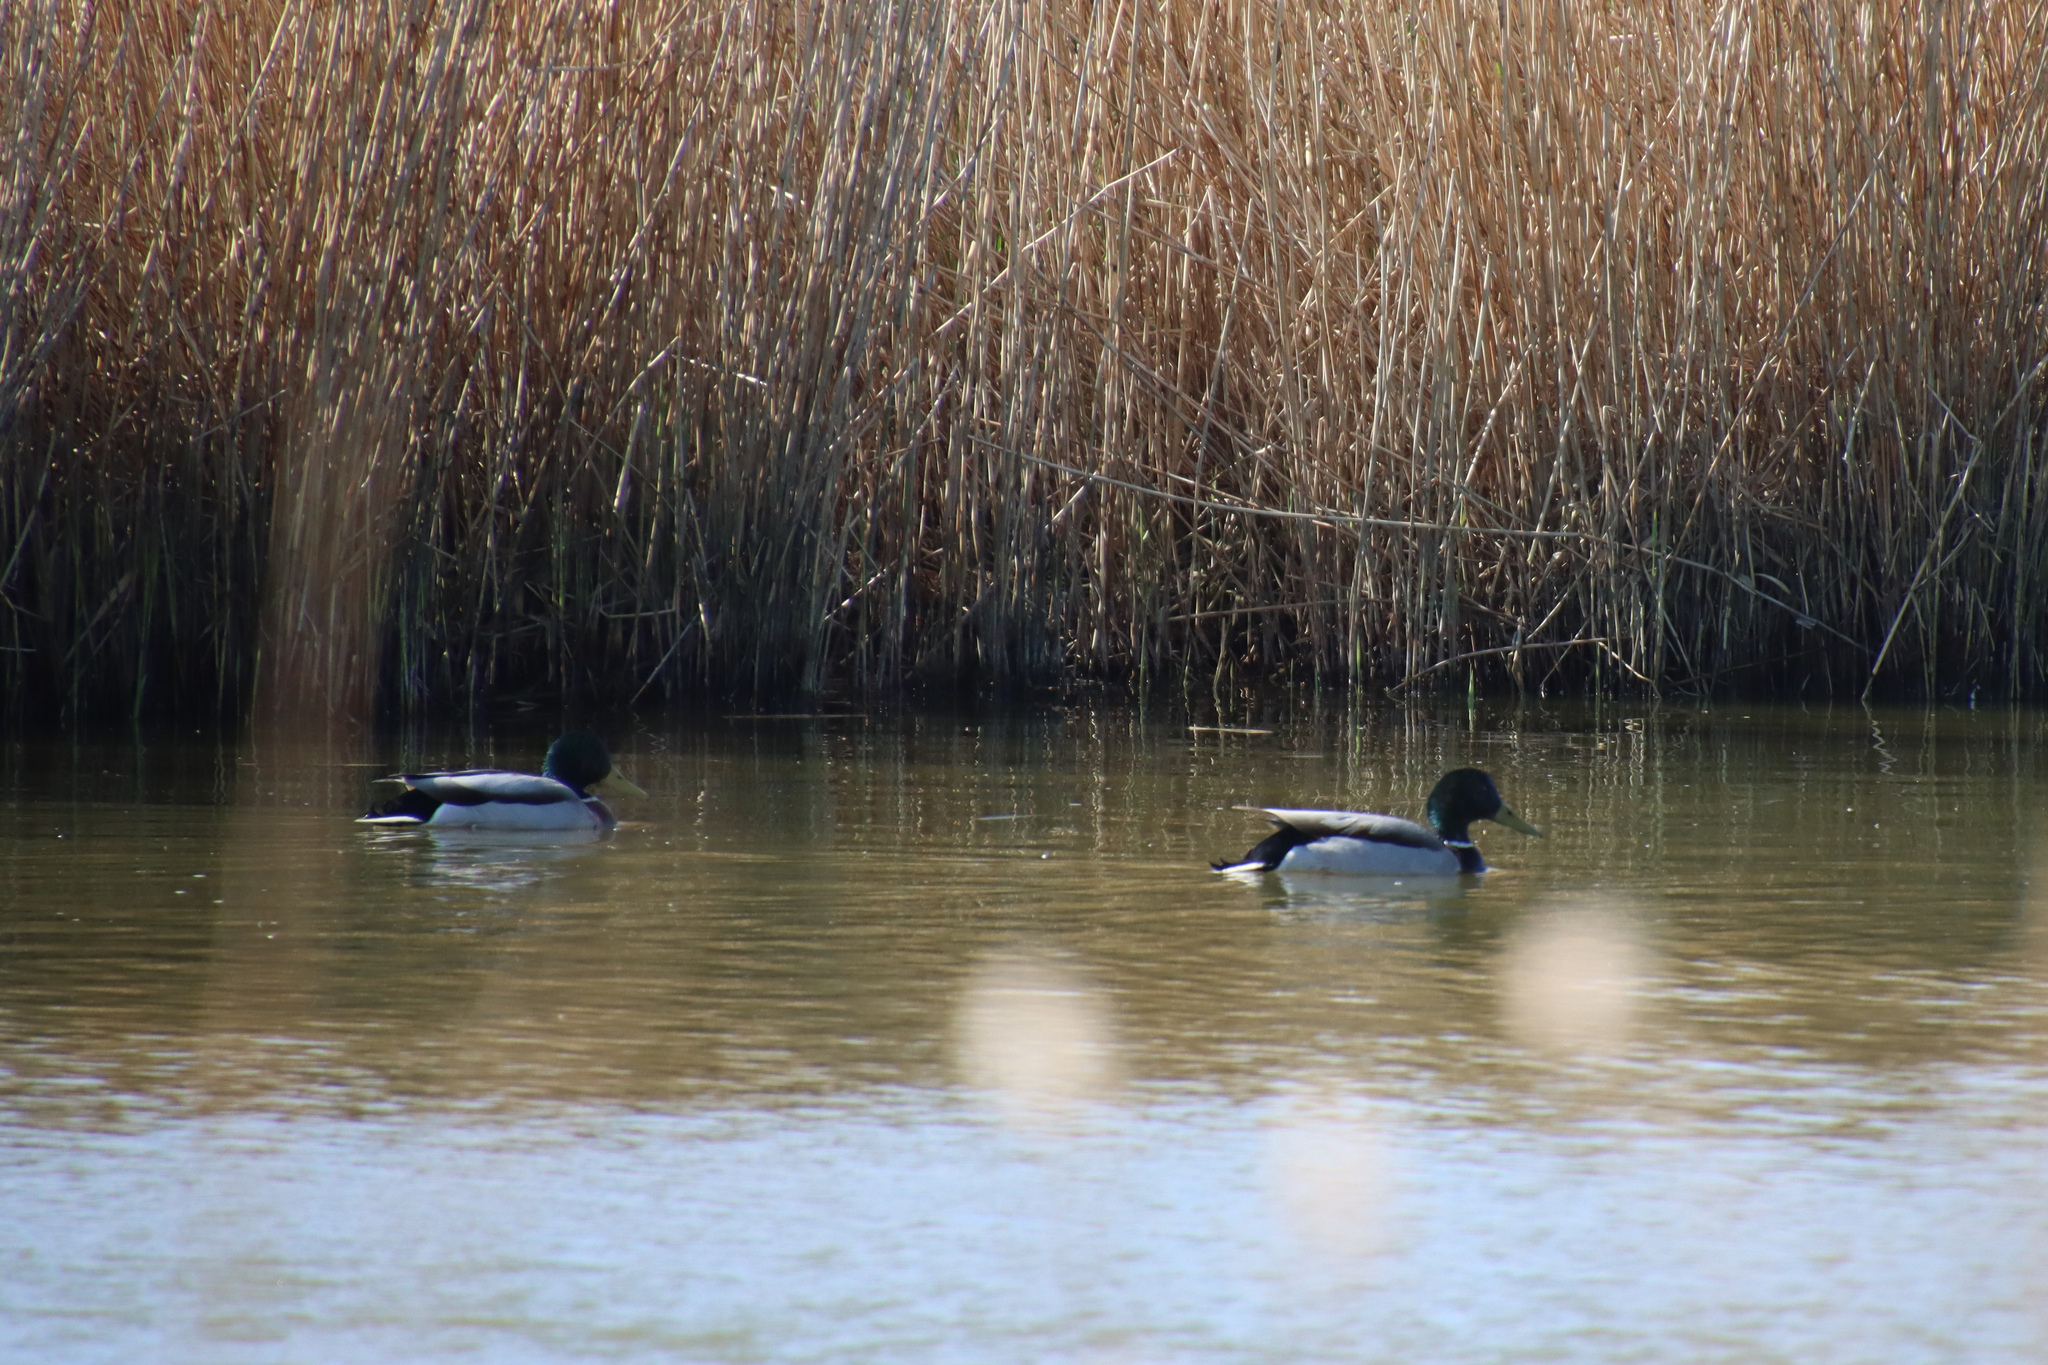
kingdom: Animalia
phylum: Chordata
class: Aves
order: Anseriformes
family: Anatidae
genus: Anas
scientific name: Anas platyrhynchos
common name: Mallard
